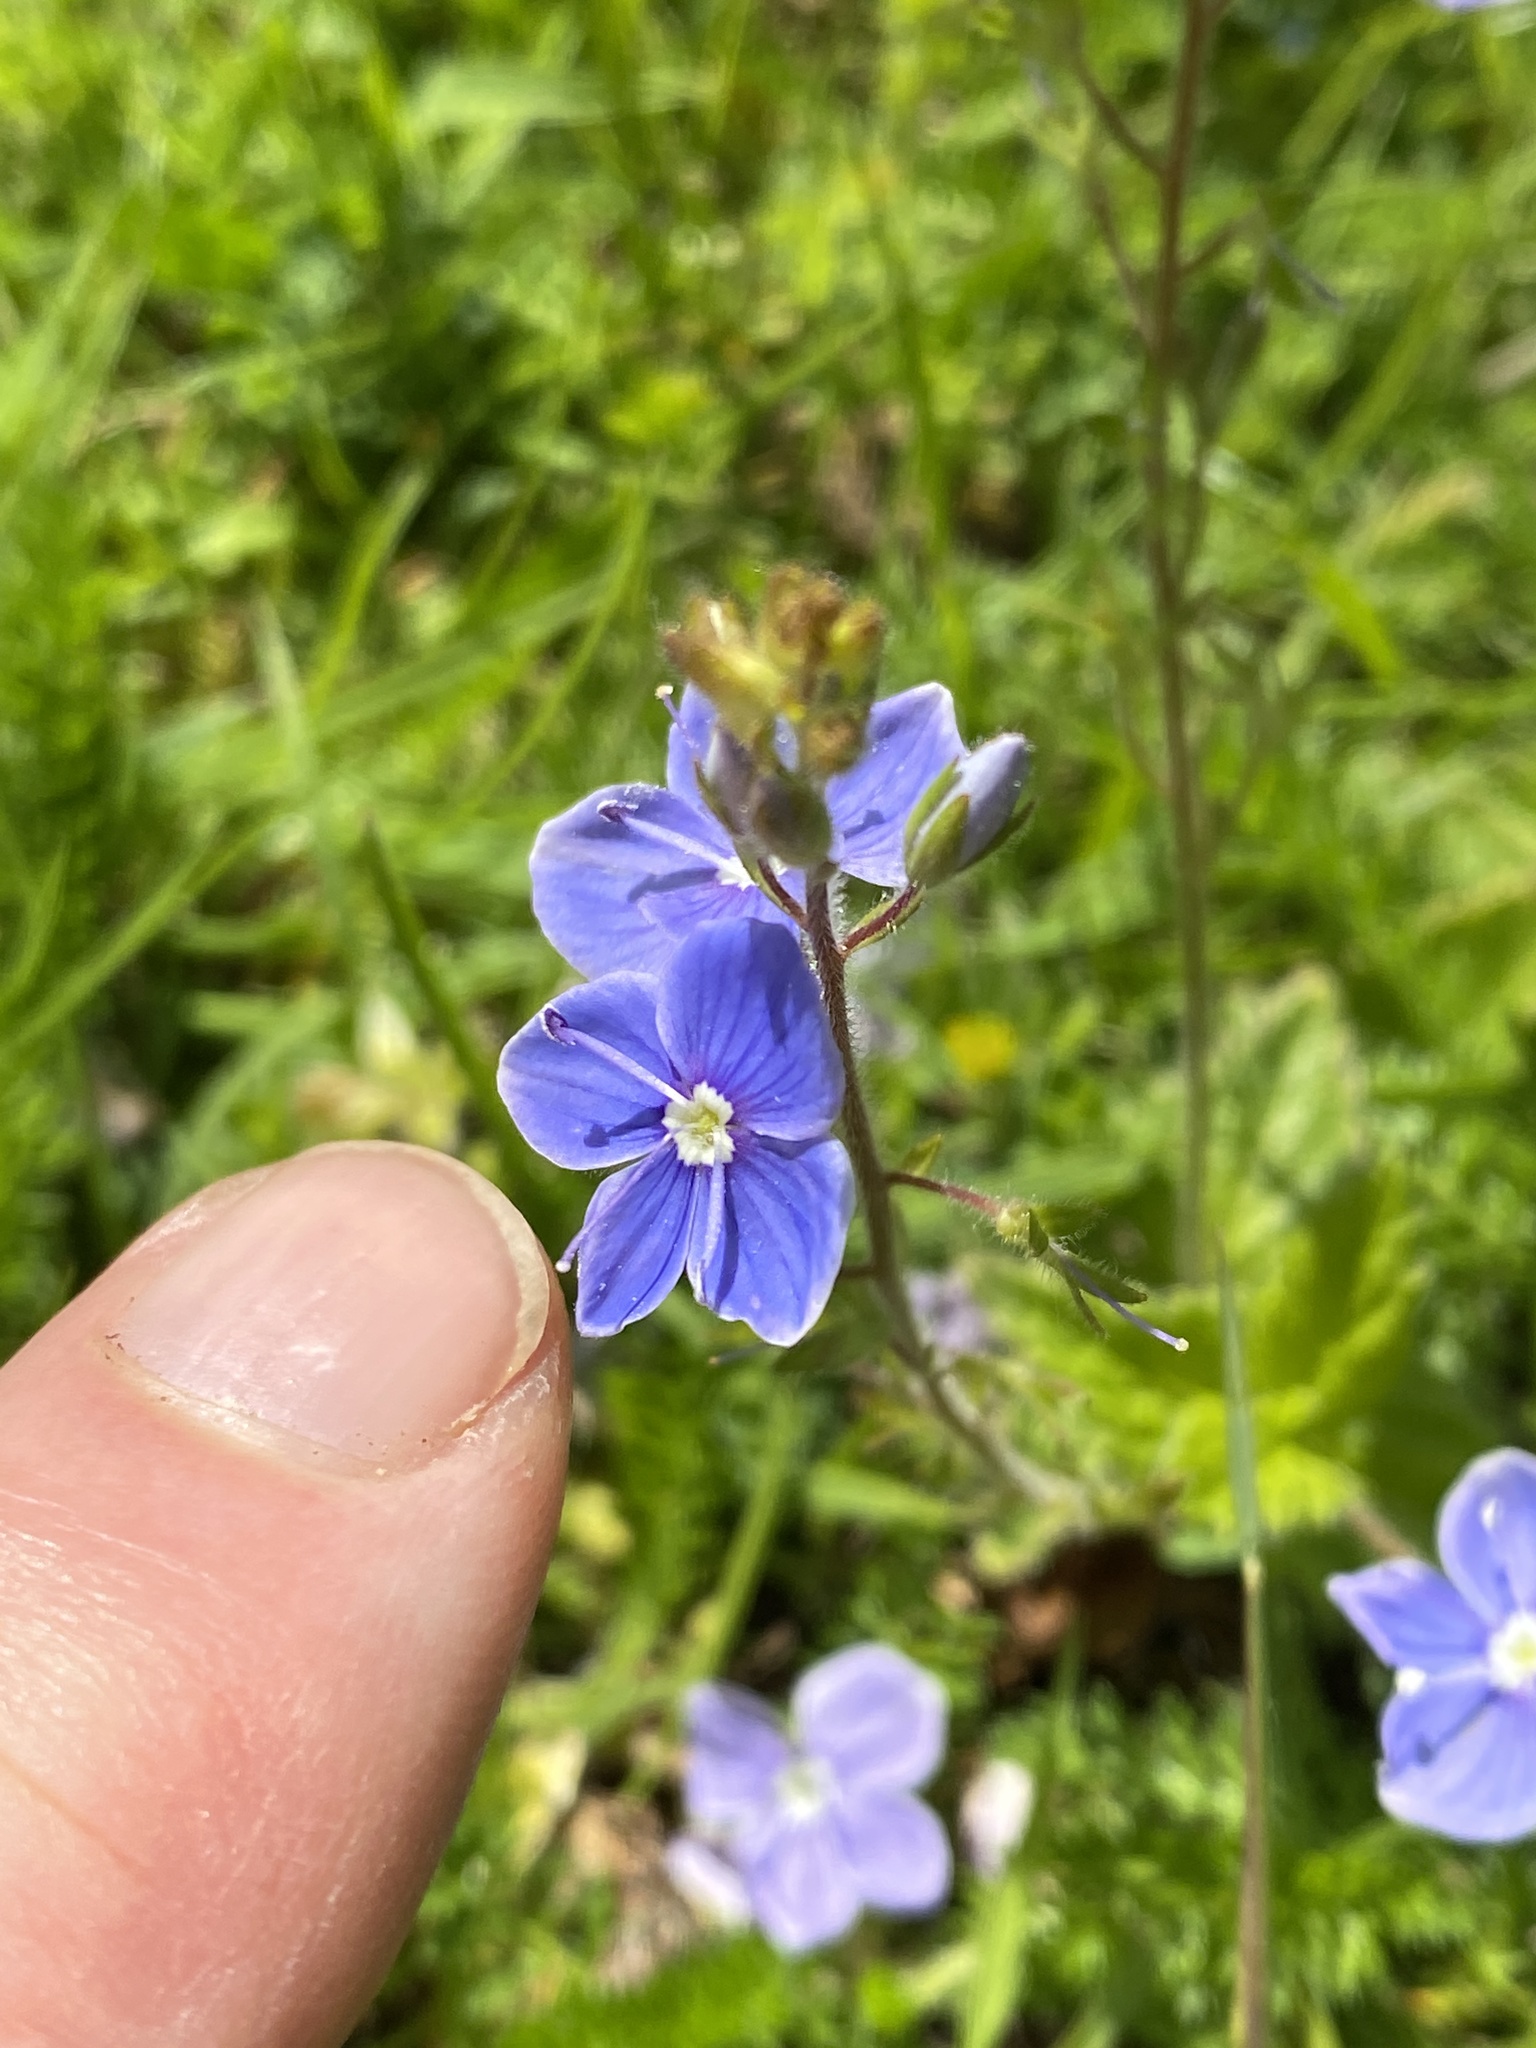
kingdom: Plantae
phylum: Tracheophyta
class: Magnoliopsida
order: Lamiales
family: Plantaginaceae
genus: Veronica
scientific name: Veronica chamaedrys
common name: Germander speedwell
